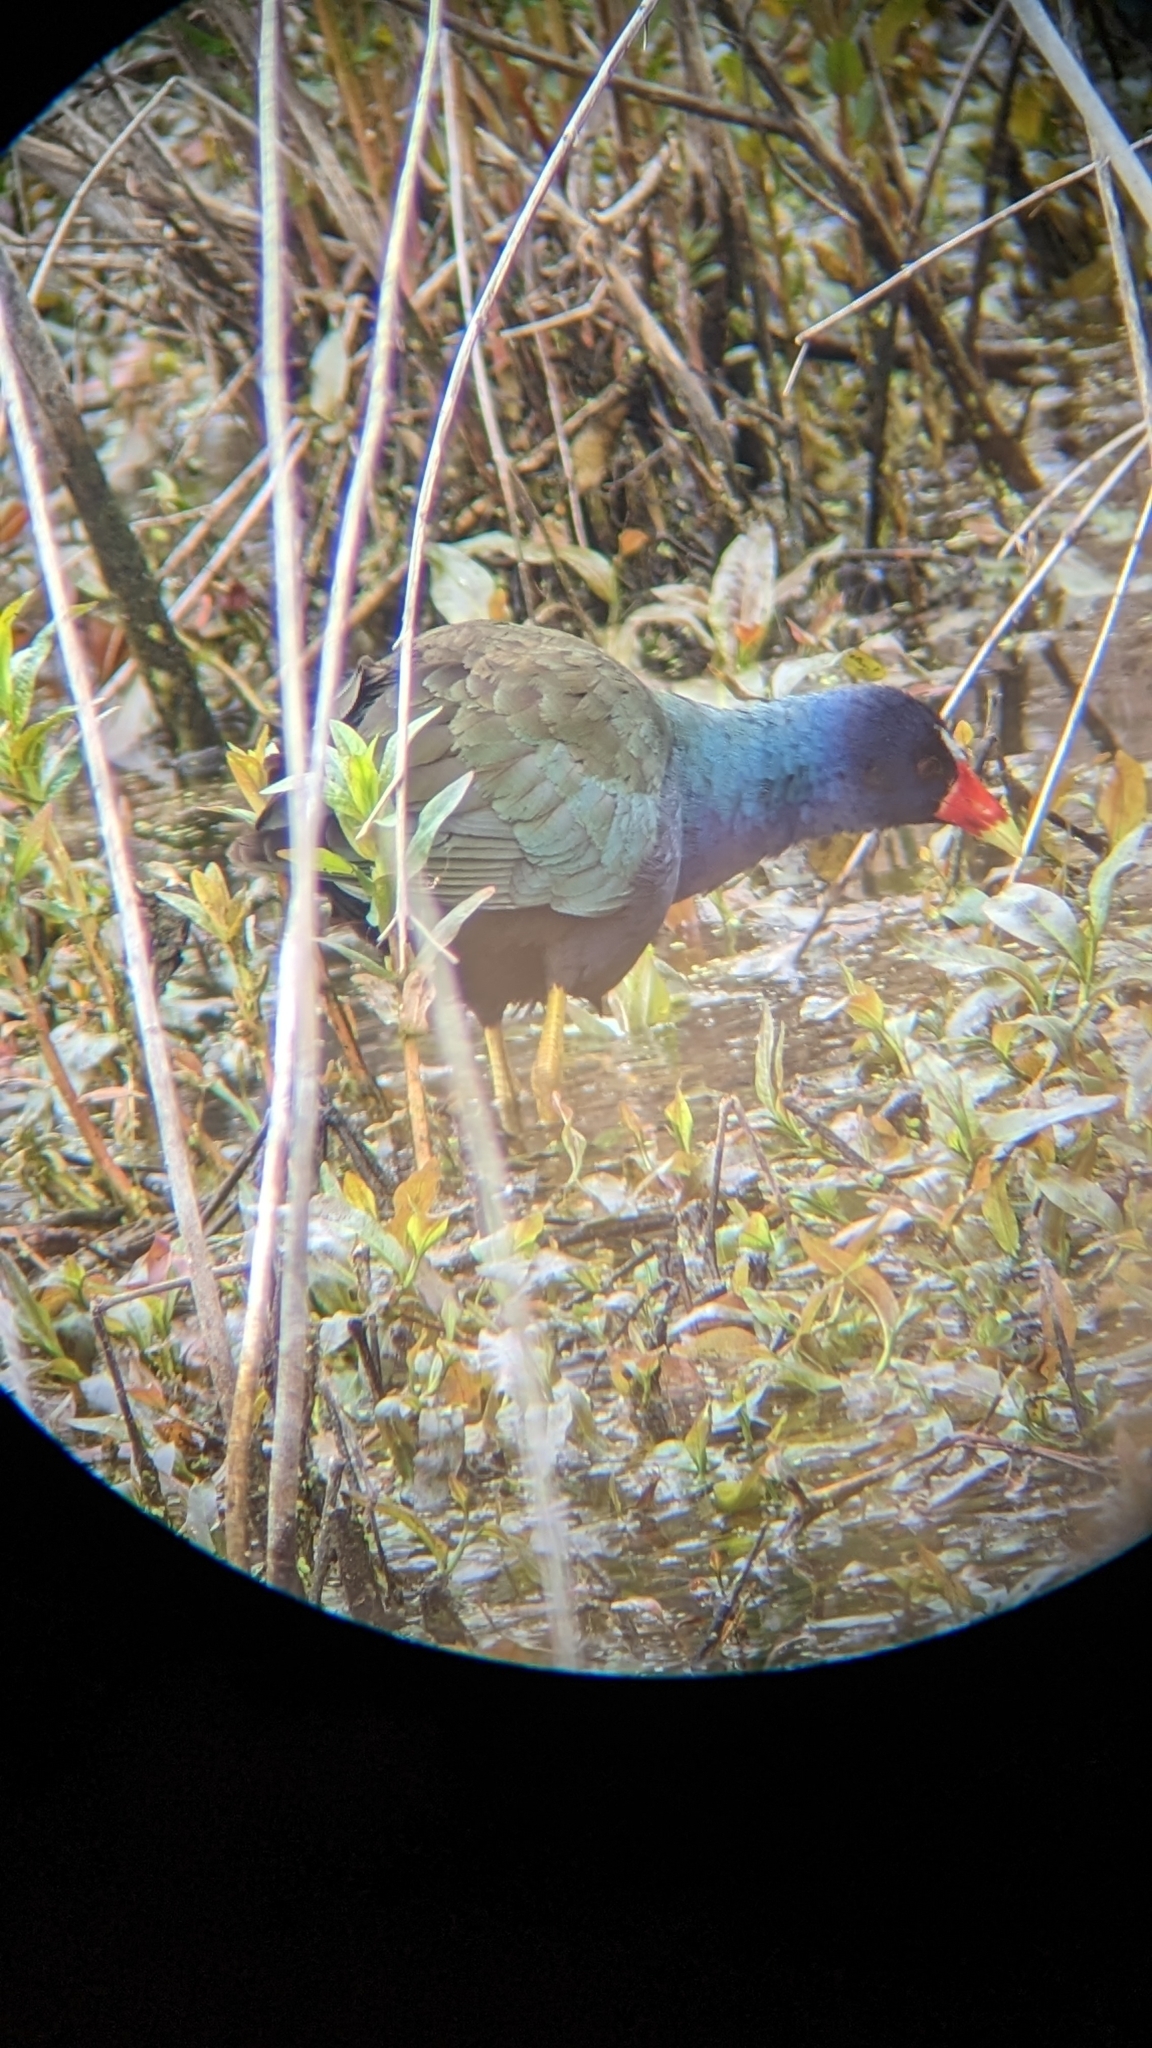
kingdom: Animalia
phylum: Chordata
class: Aves
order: Gruiformes
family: Rallidae
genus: Porphyrio
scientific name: Porphyrio martinica
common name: Purple gallinule
